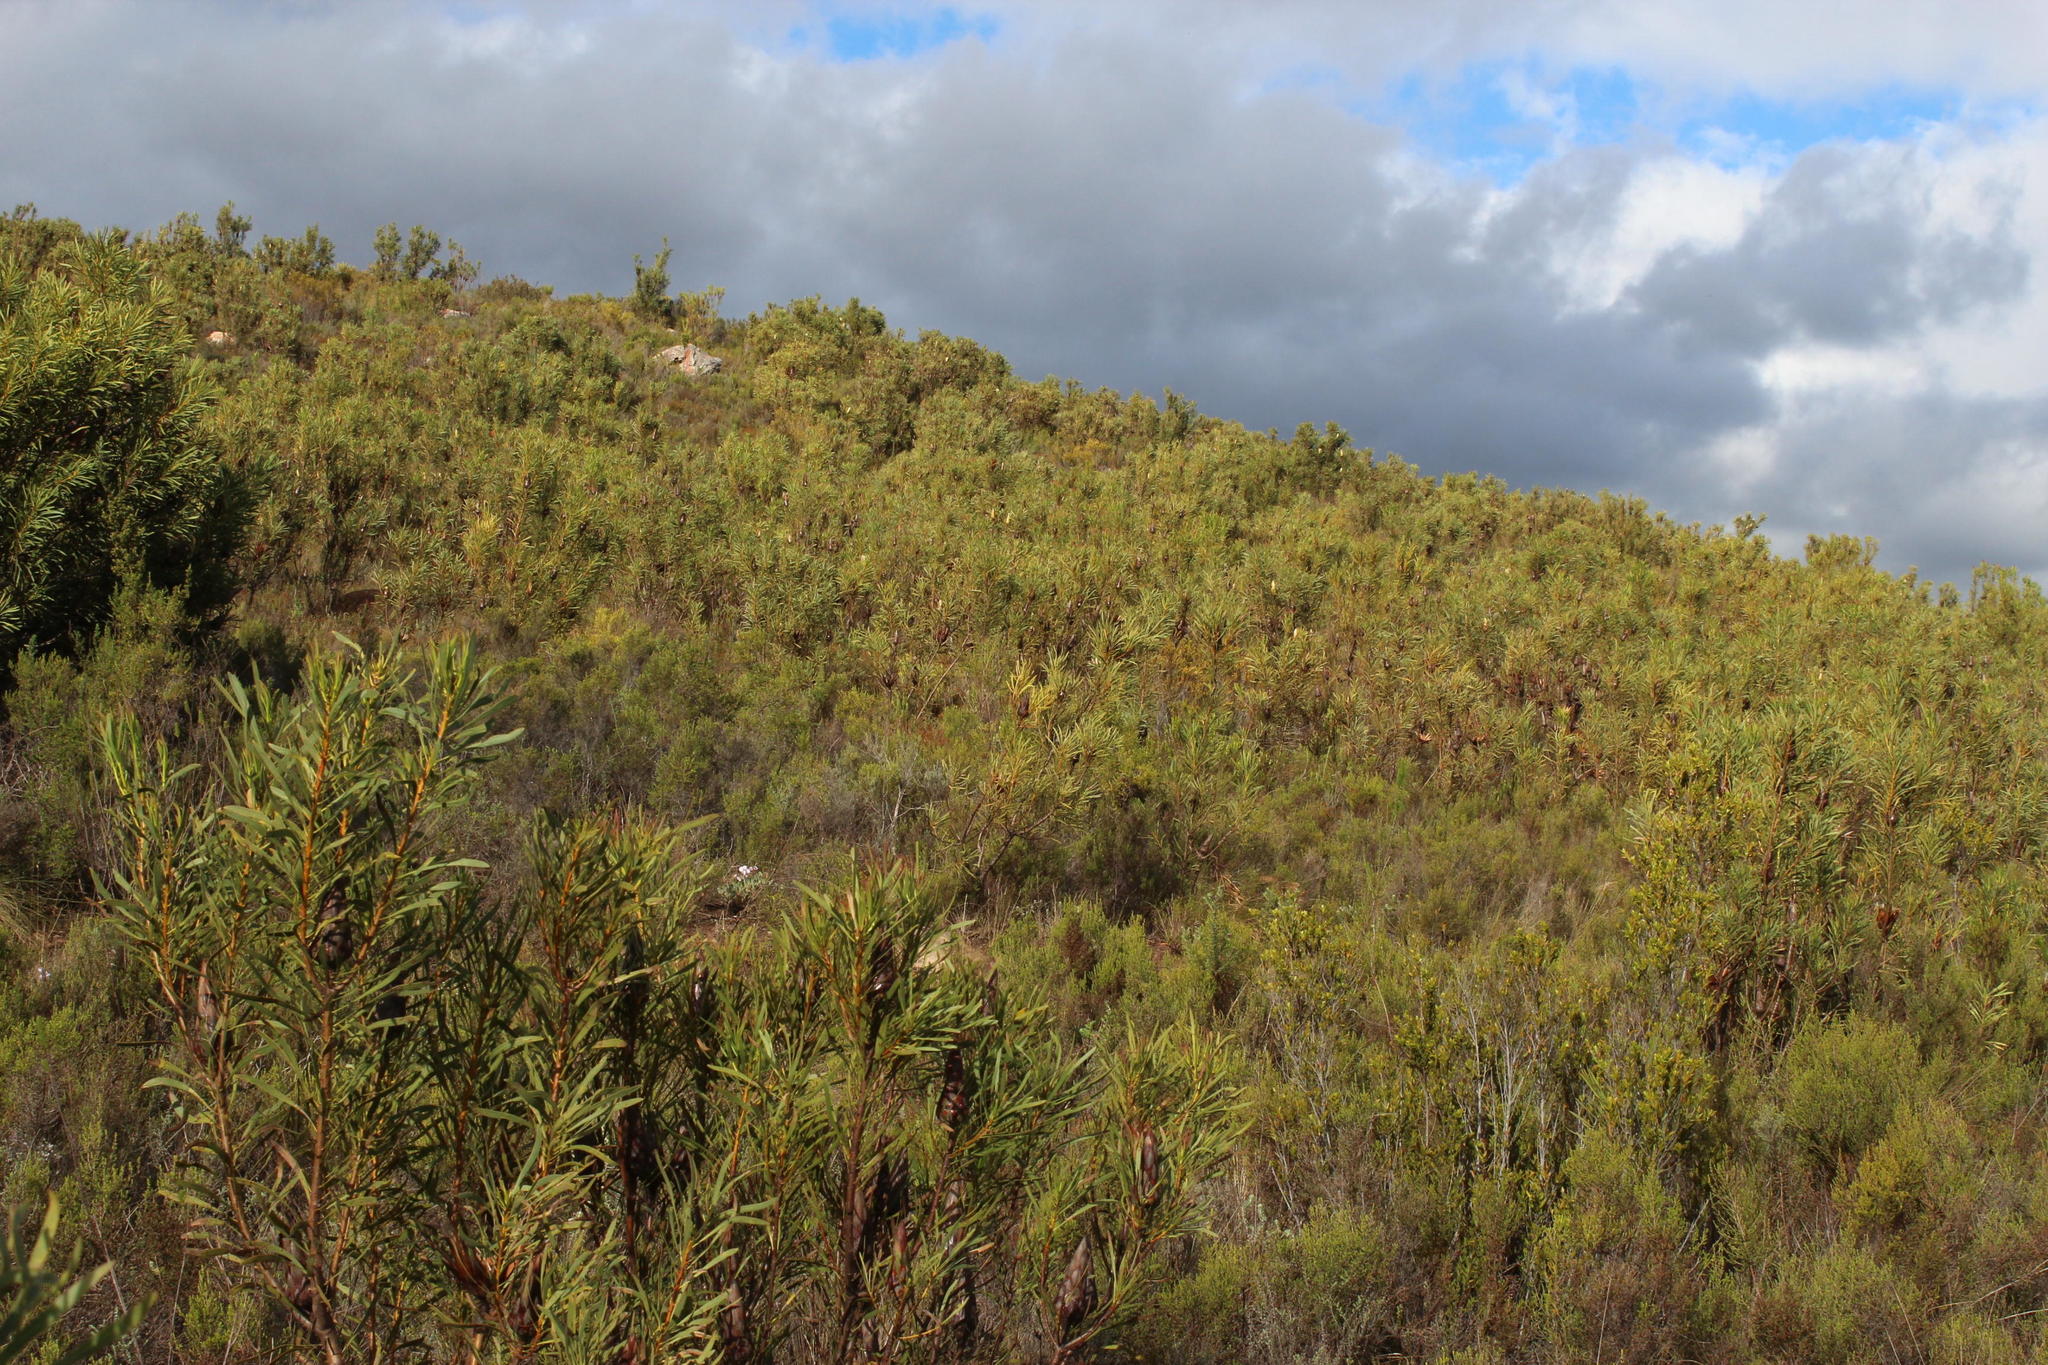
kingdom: Plantae
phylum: Tracheophyta
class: Magnoliopsida
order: Proteales
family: Proteaceae
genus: Protea
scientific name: Protea repens
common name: Sugarbush
